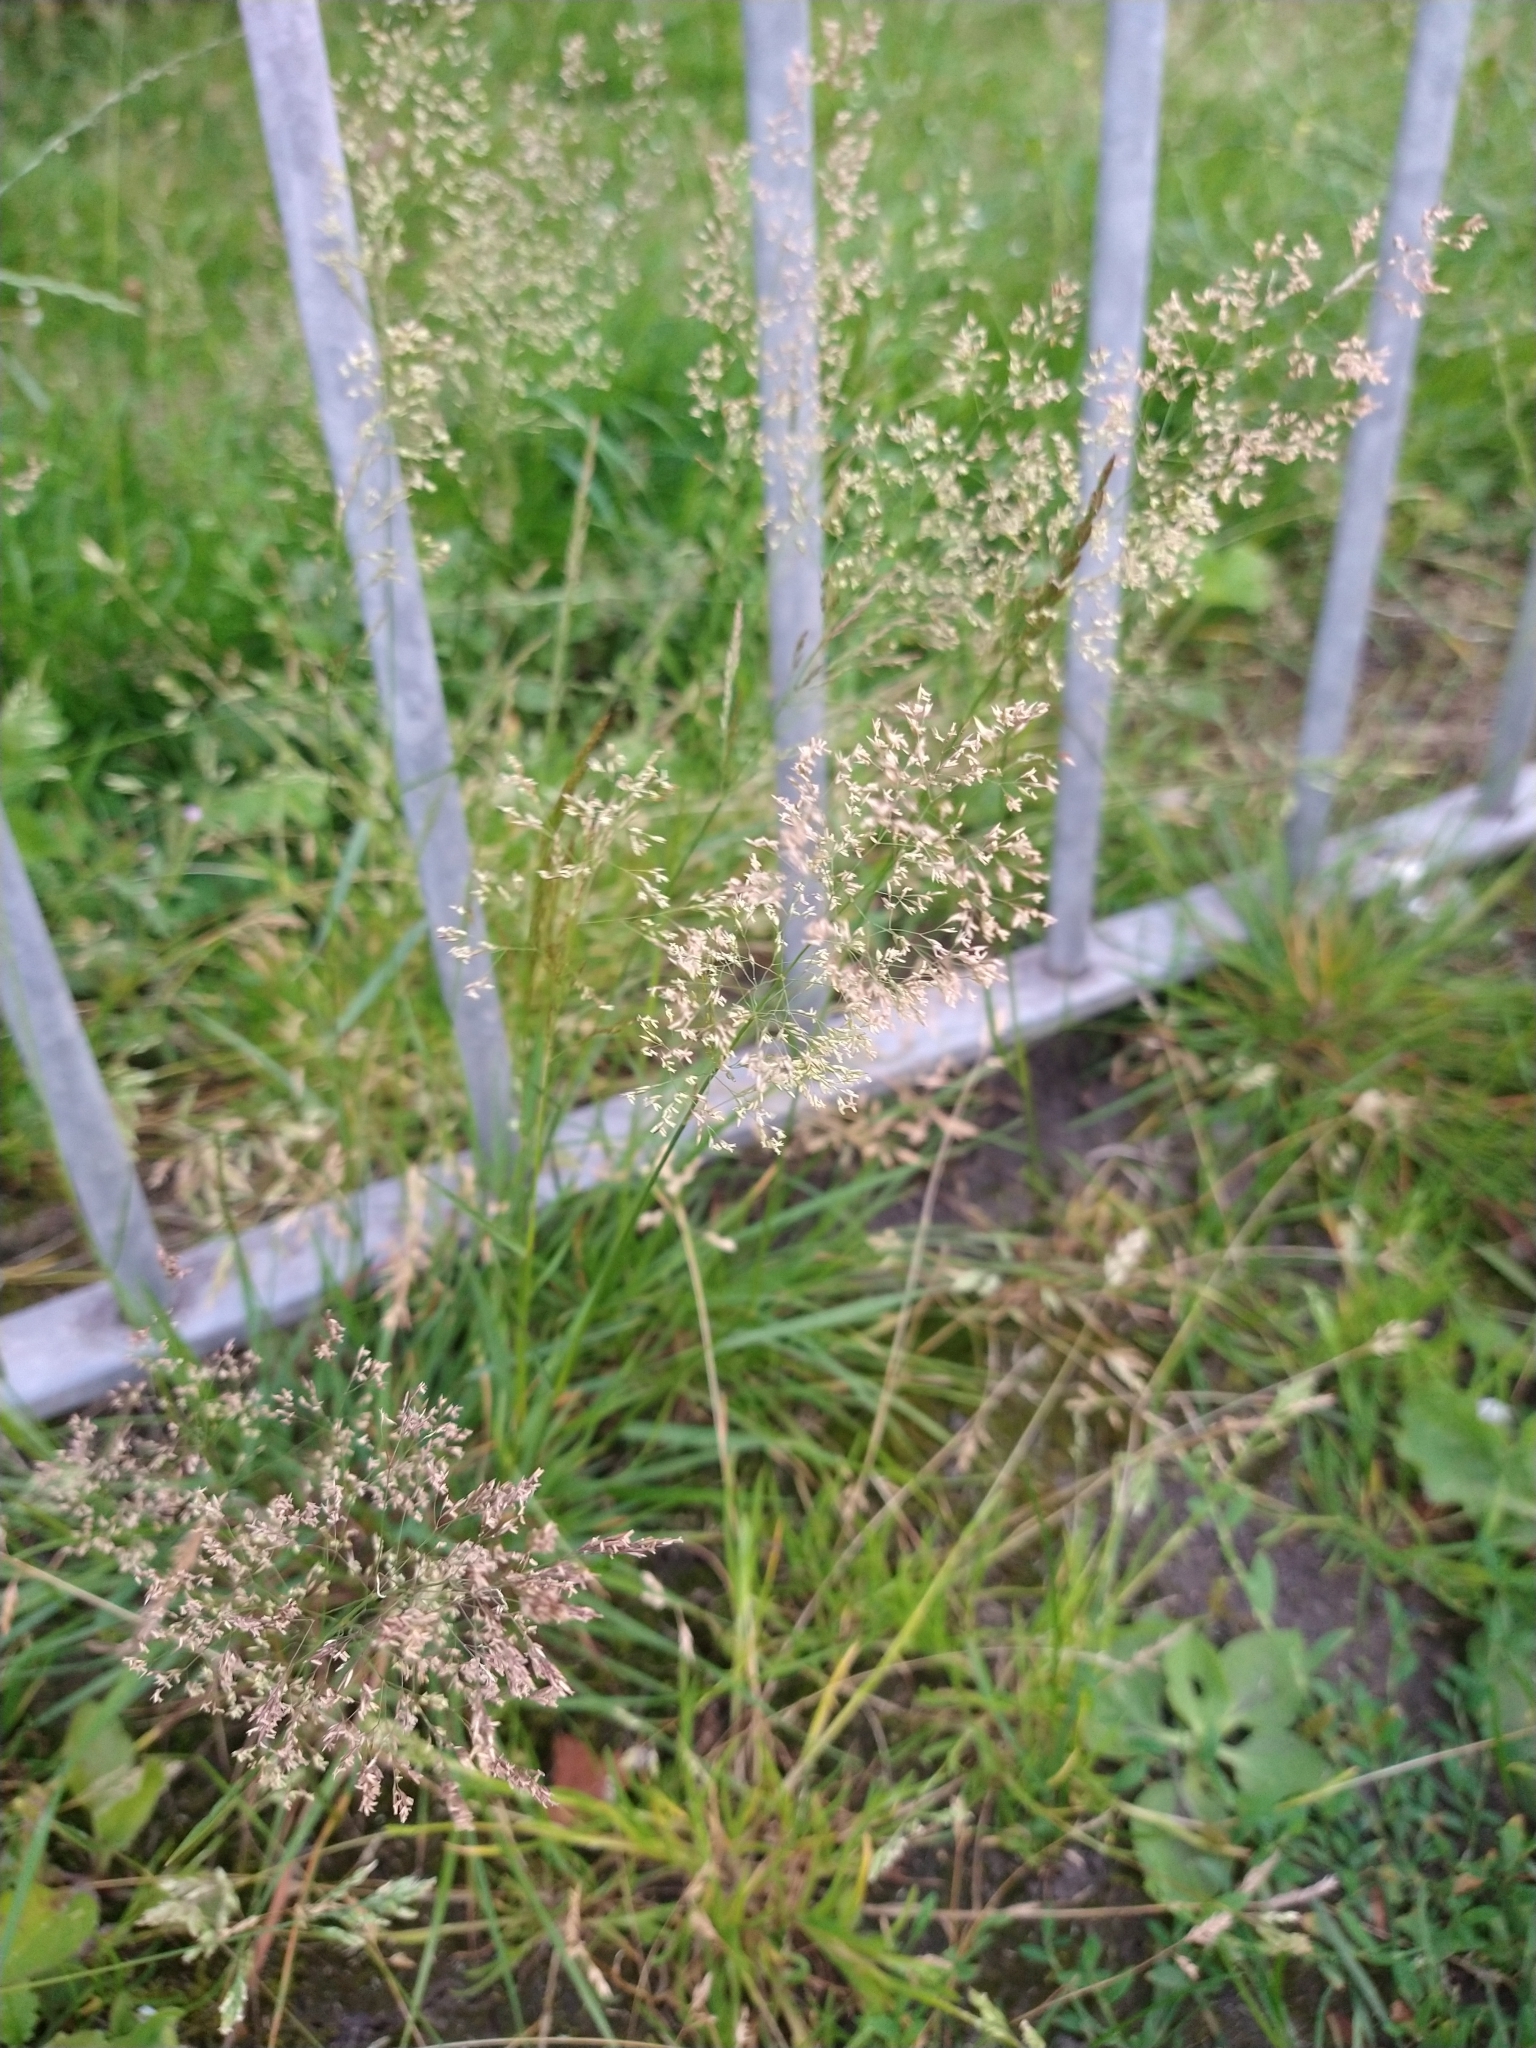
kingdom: Plantae
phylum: Tracheophyta
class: Liliopsida
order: Poales
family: Poaceae
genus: Agrostis
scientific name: Agrostis capillaris
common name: Colonial bentgrass
